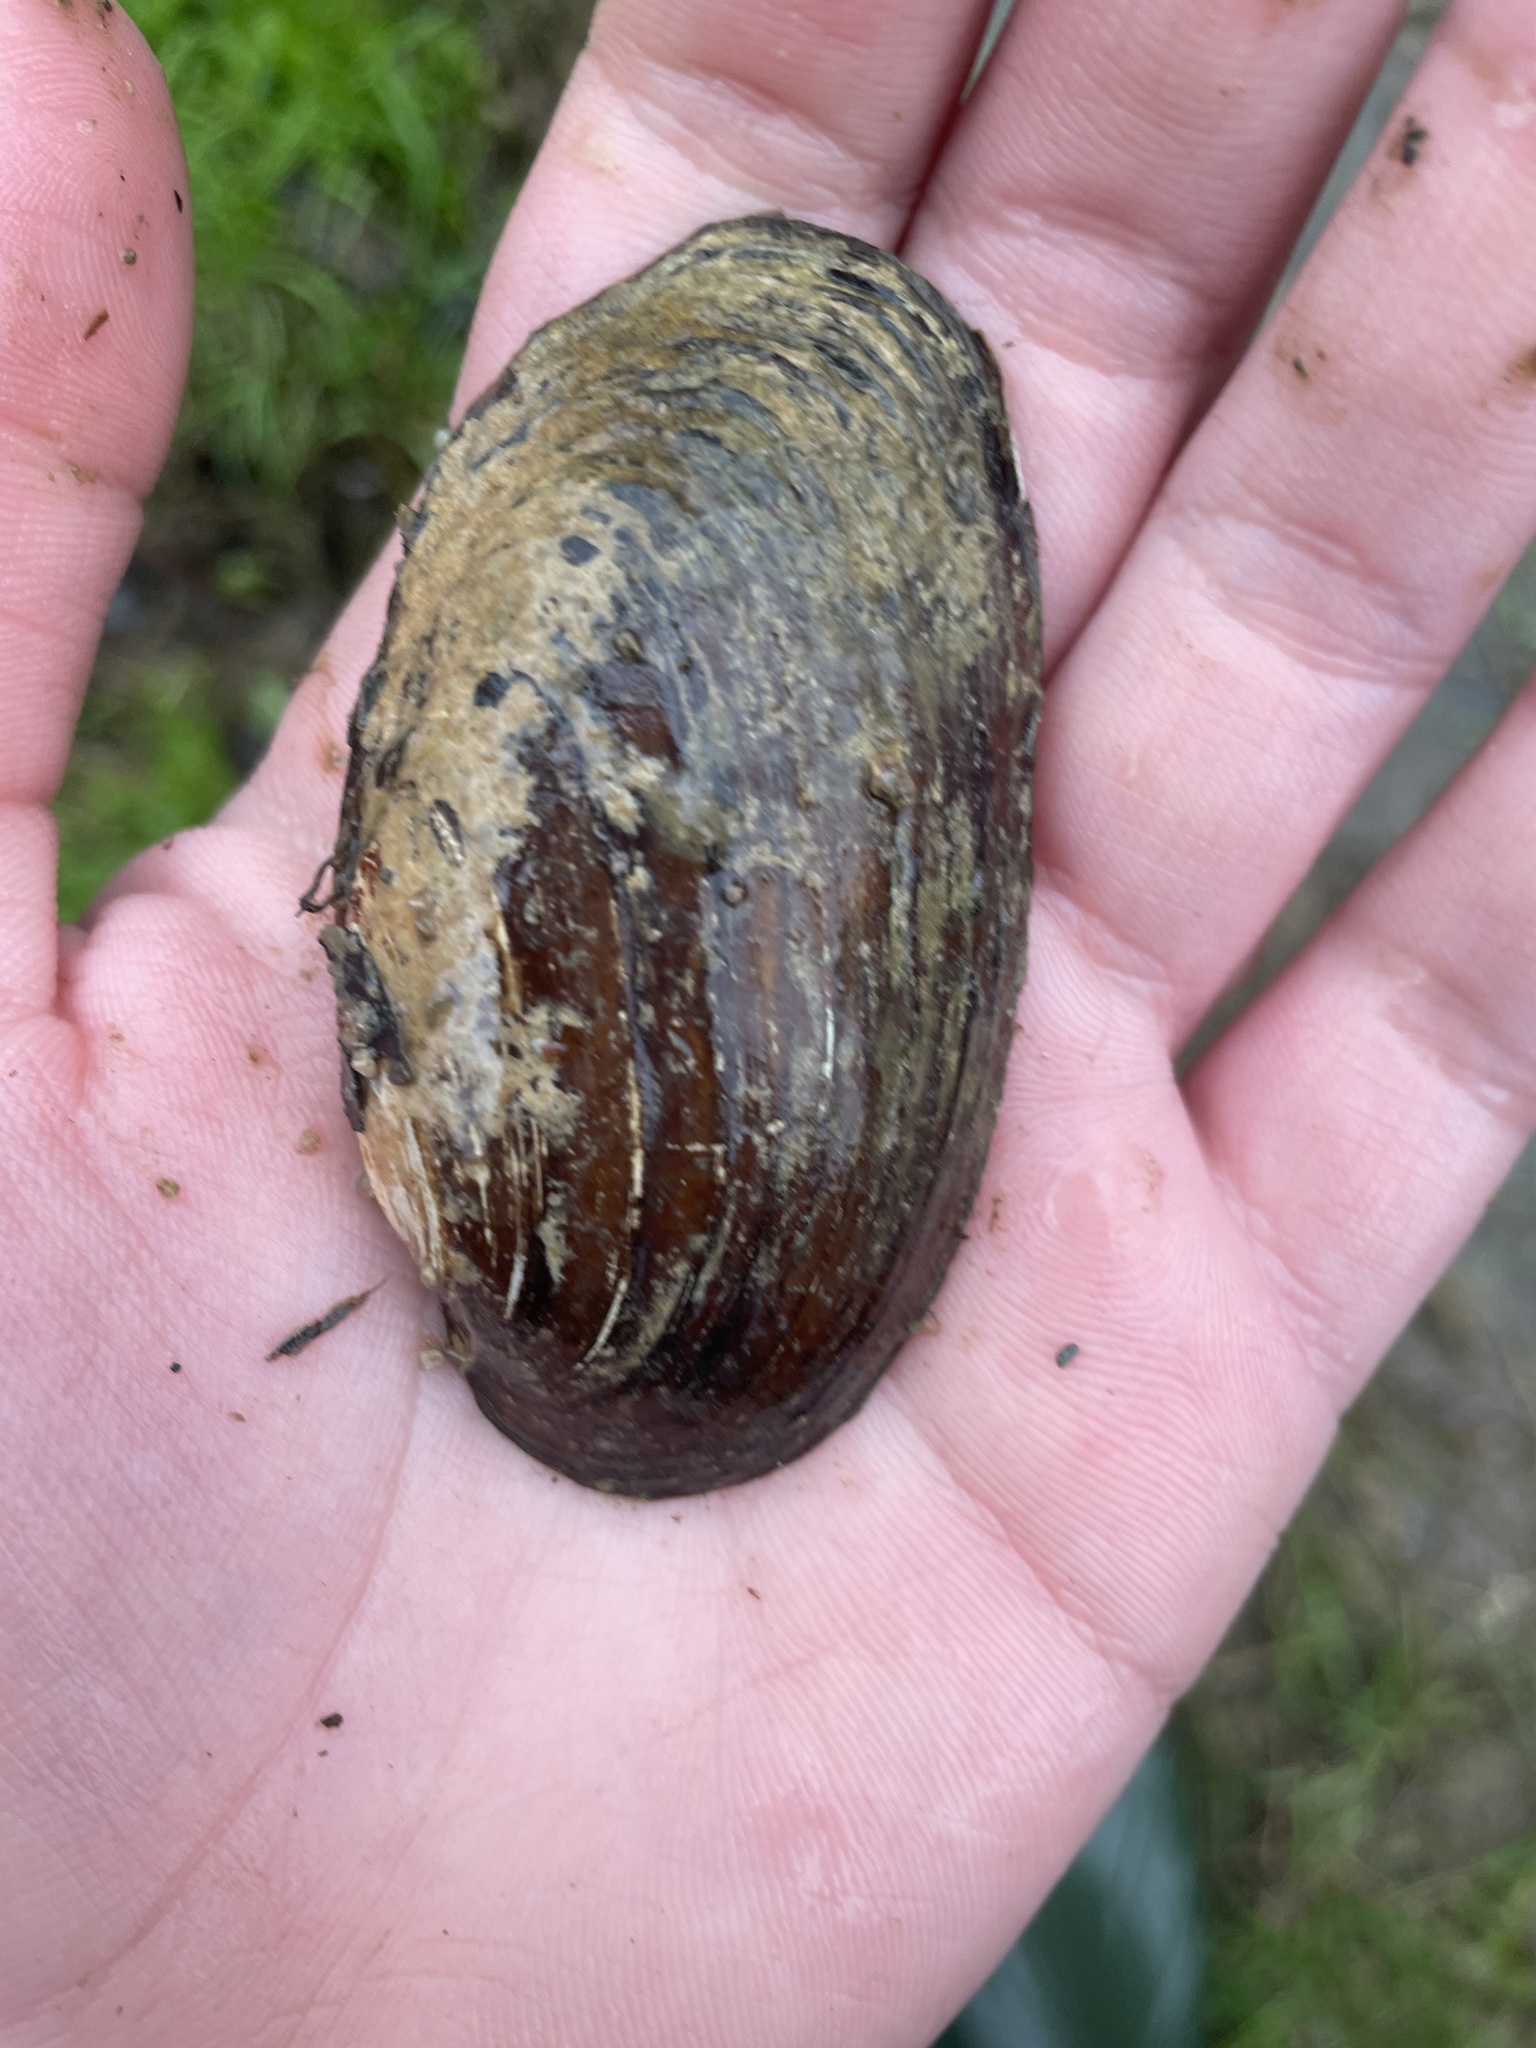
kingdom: Animalia
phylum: Mollusca
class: Bivalvia
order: Unionida
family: Unionidae
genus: Eurynia
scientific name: Eurynia dilatata
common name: Spike
